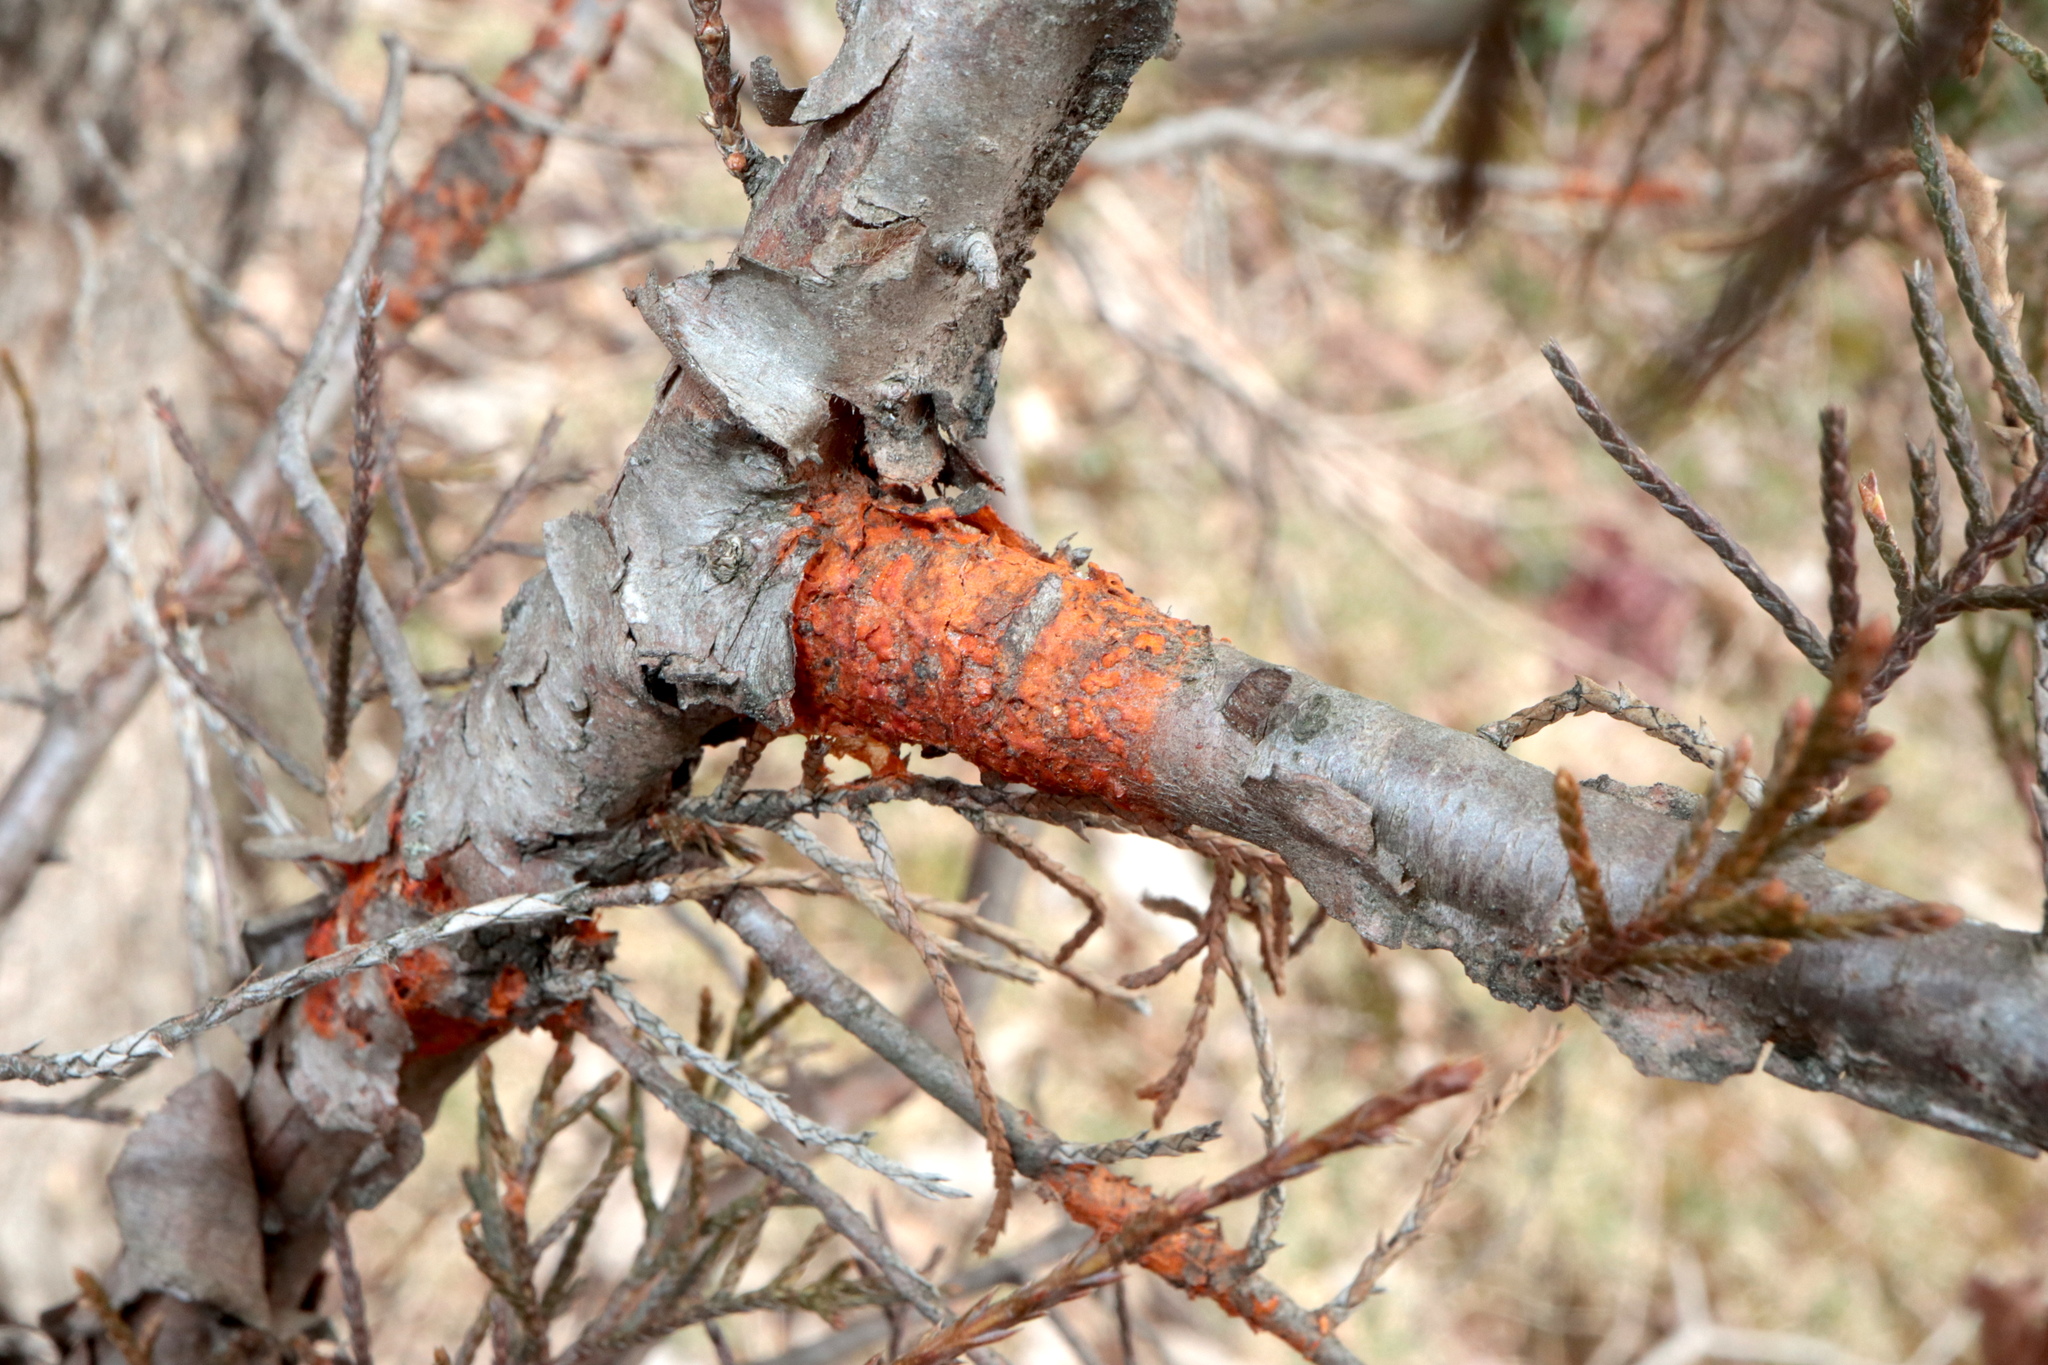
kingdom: Fungi
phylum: Basidiomycota
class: Pucciniomycetes
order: Pucciniales
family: Gymnosporangiaceae
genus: Gymnosporangium
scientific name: Gymnosporangium clavipes
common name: Quince rust
